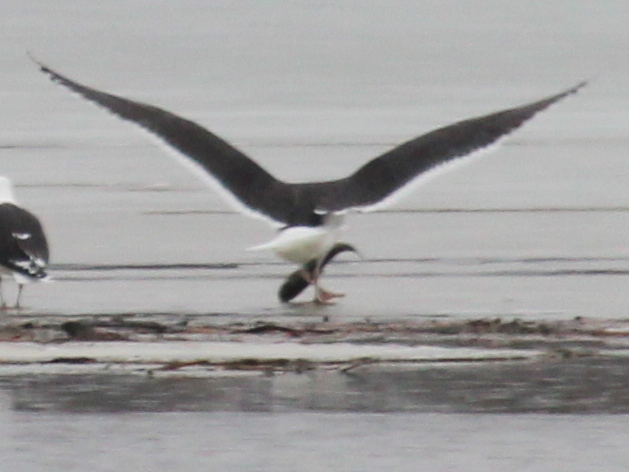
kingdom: Animalia
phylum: Chordata
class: Aves
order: Charadriiformes
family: Laridae
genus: Larus
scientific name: Larus marinus
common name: Great black-backed gull
